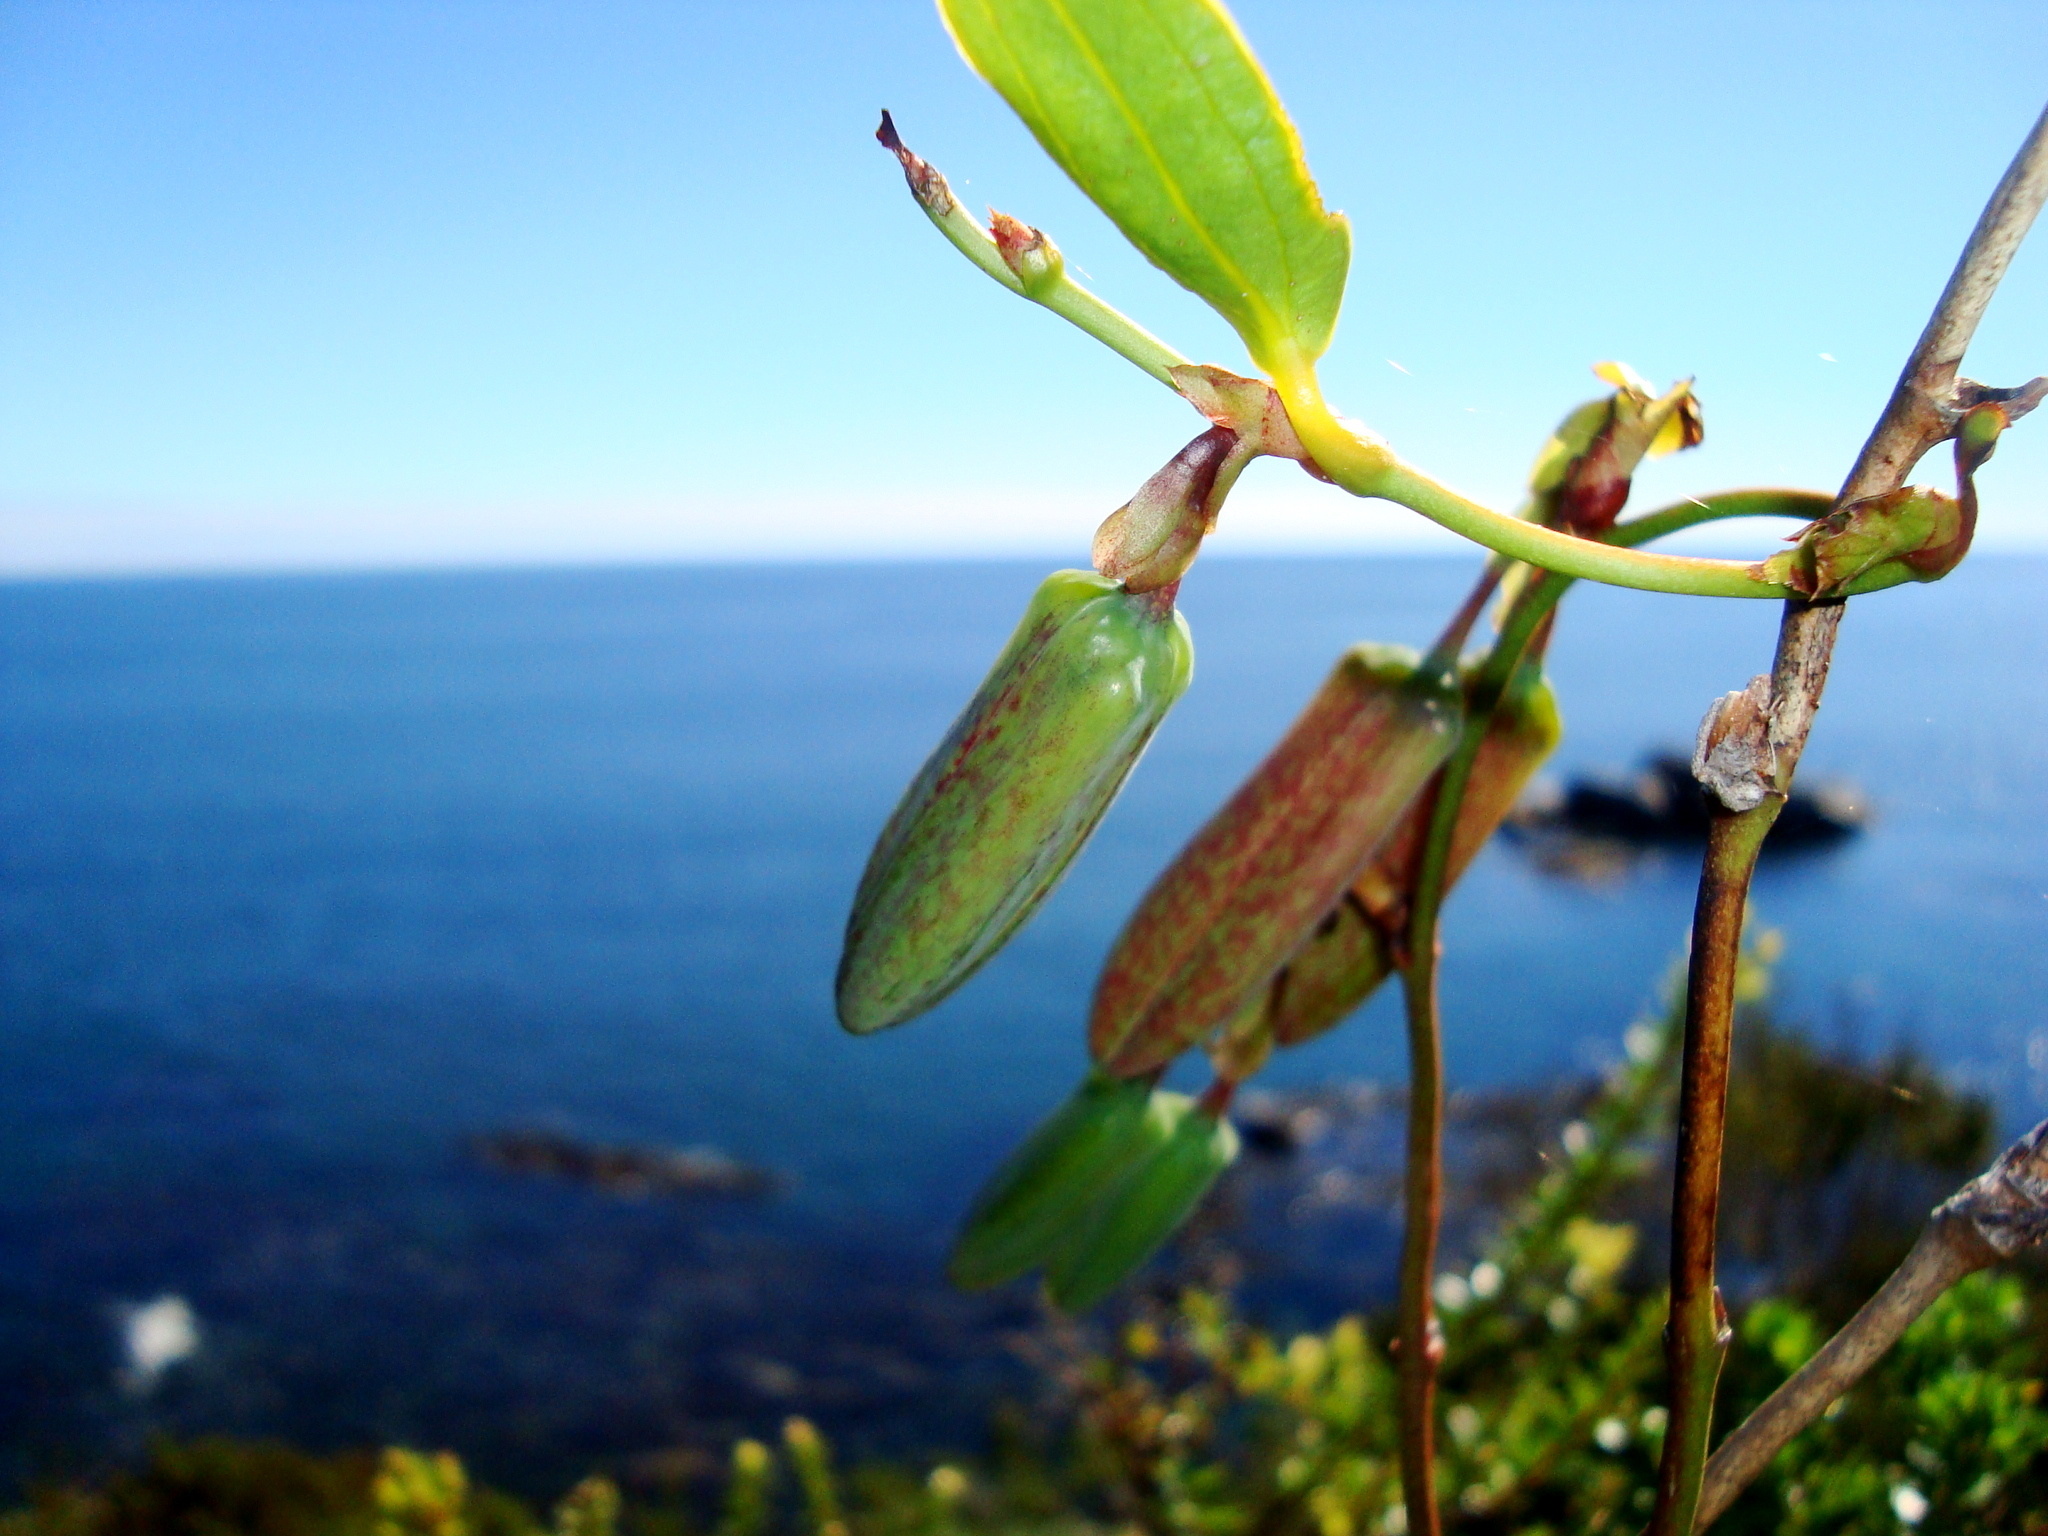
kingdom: Plantae
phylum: Tracheophyta
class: Liliopsida
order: Liliales
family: Philesiaceae
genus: Lapageria
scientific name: Lapageria rosea
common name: Chilean-bellflower
